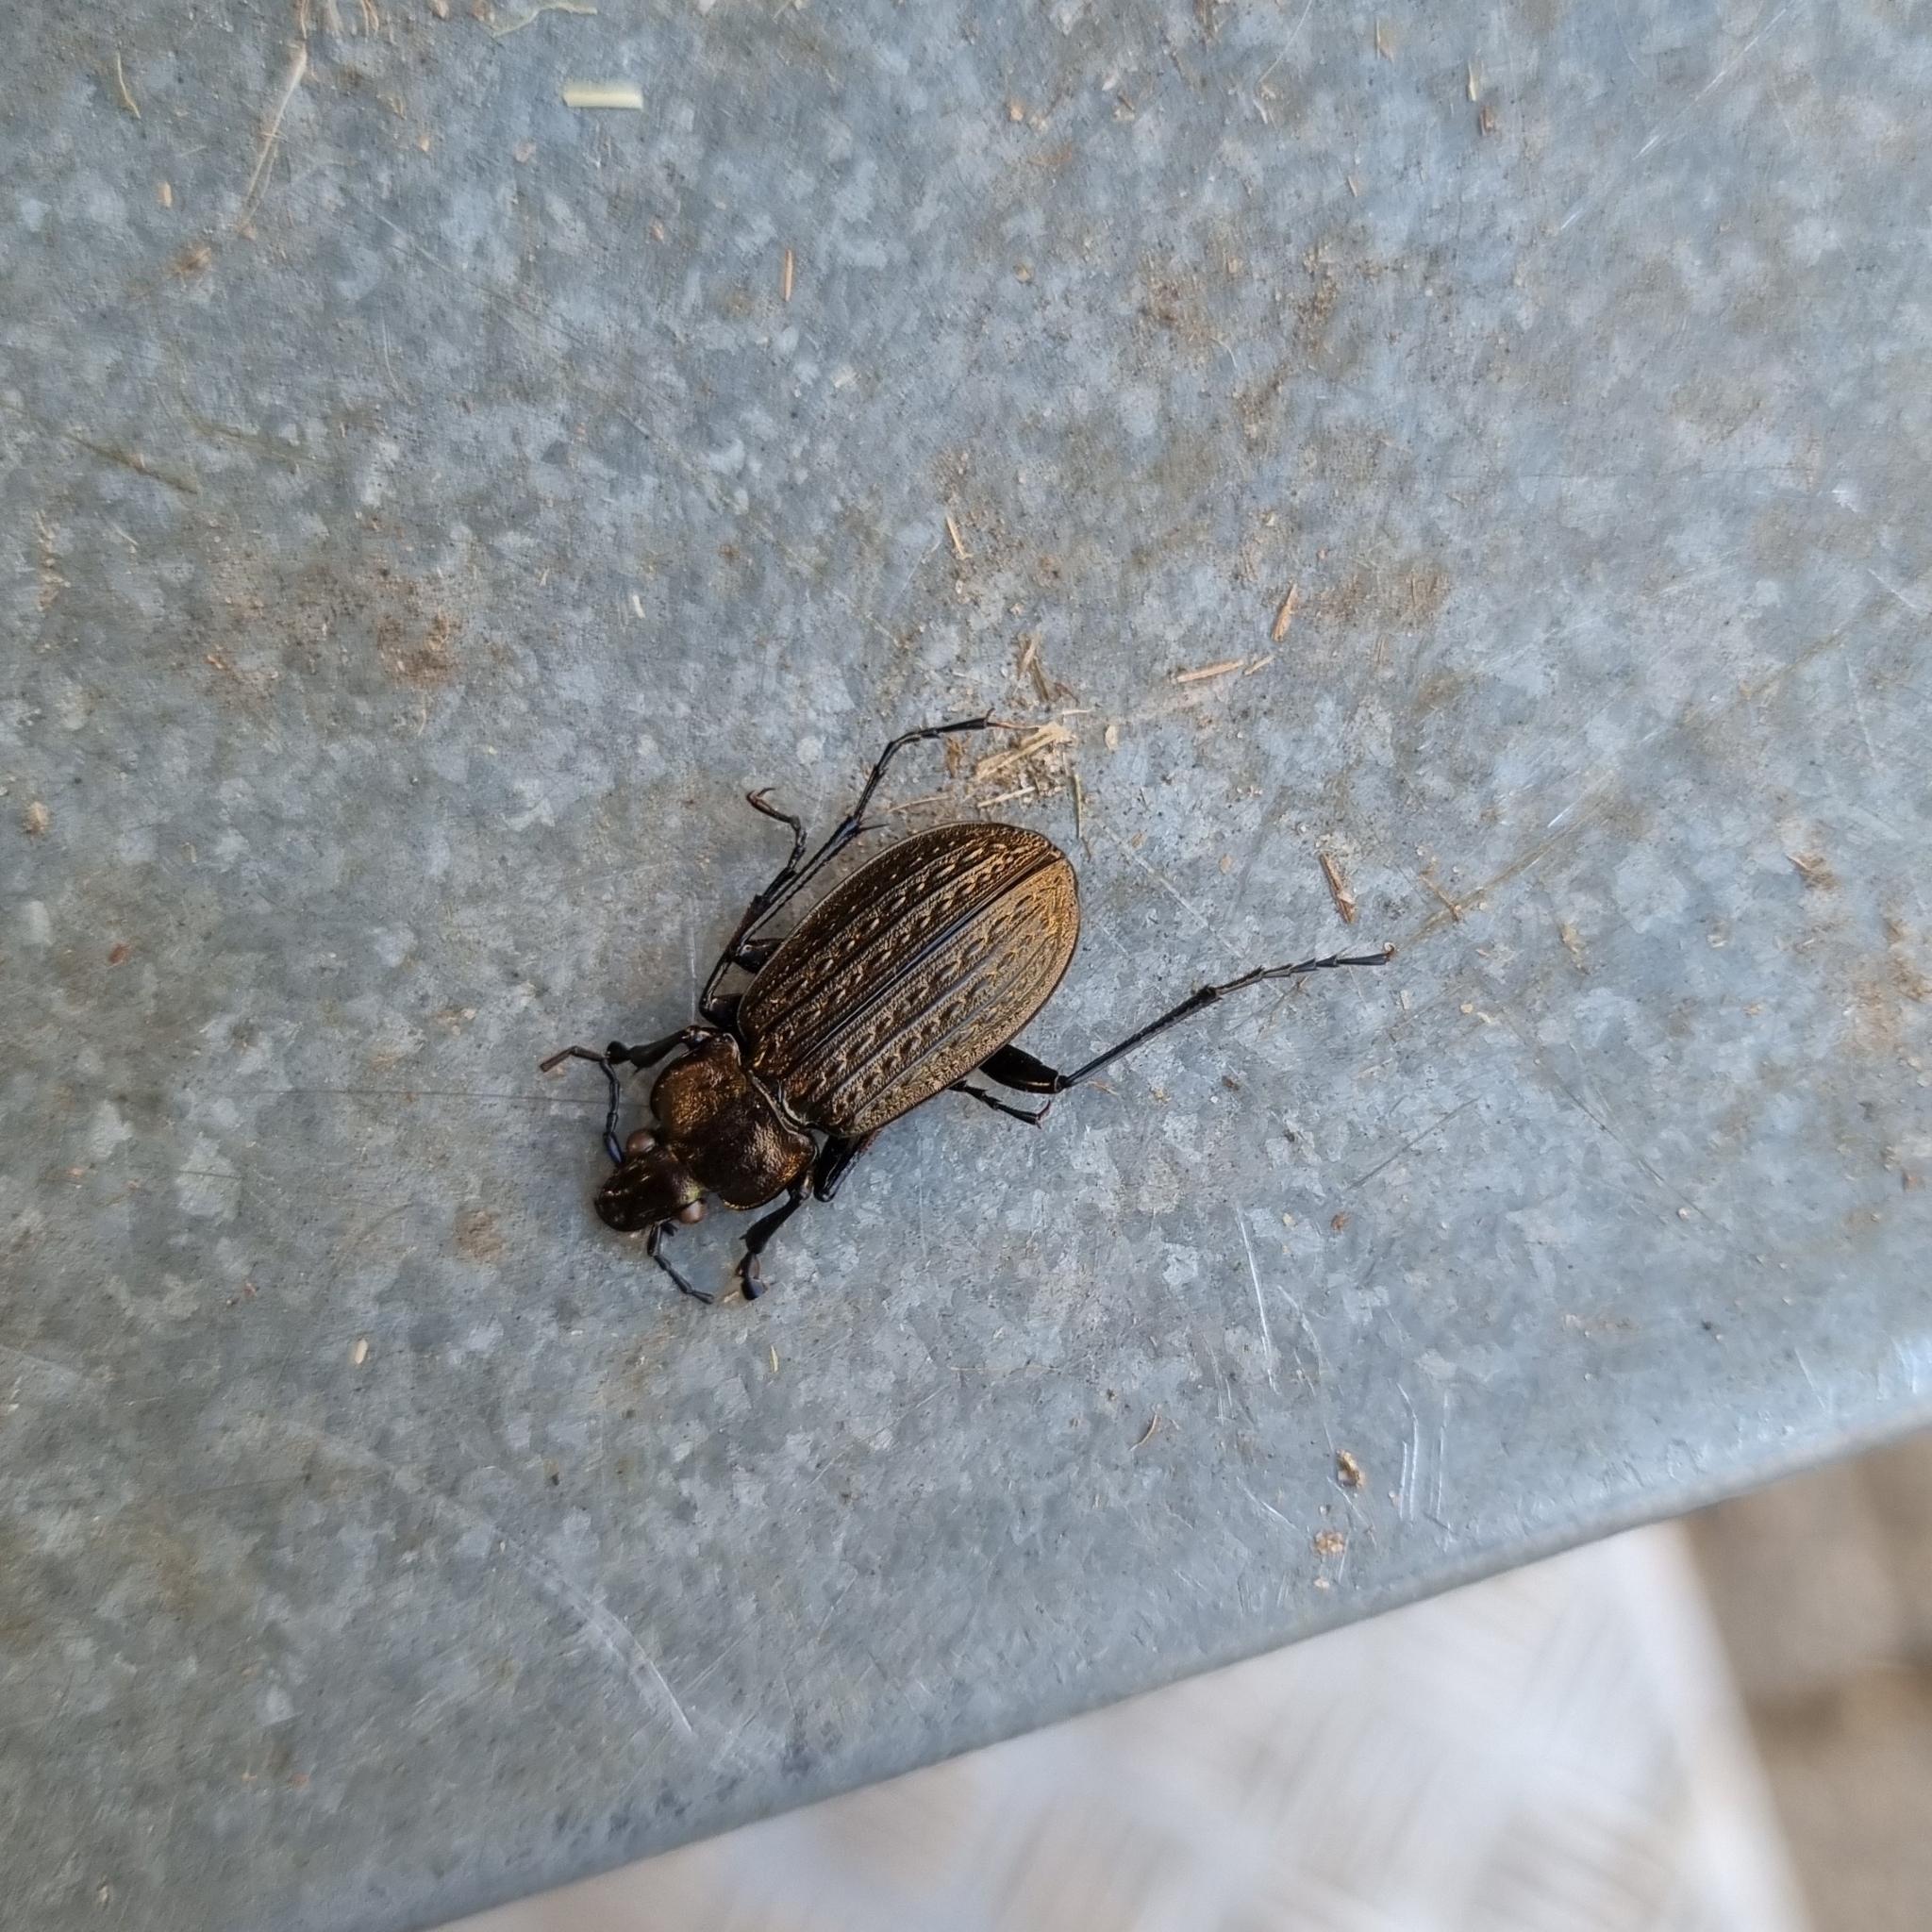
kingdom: Animalia
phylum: Arthropoda
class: Insecta
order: Coleoptera
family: Carabidae
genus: Carabus
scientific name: Carabus granulatus
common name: Granulate ground beetle
